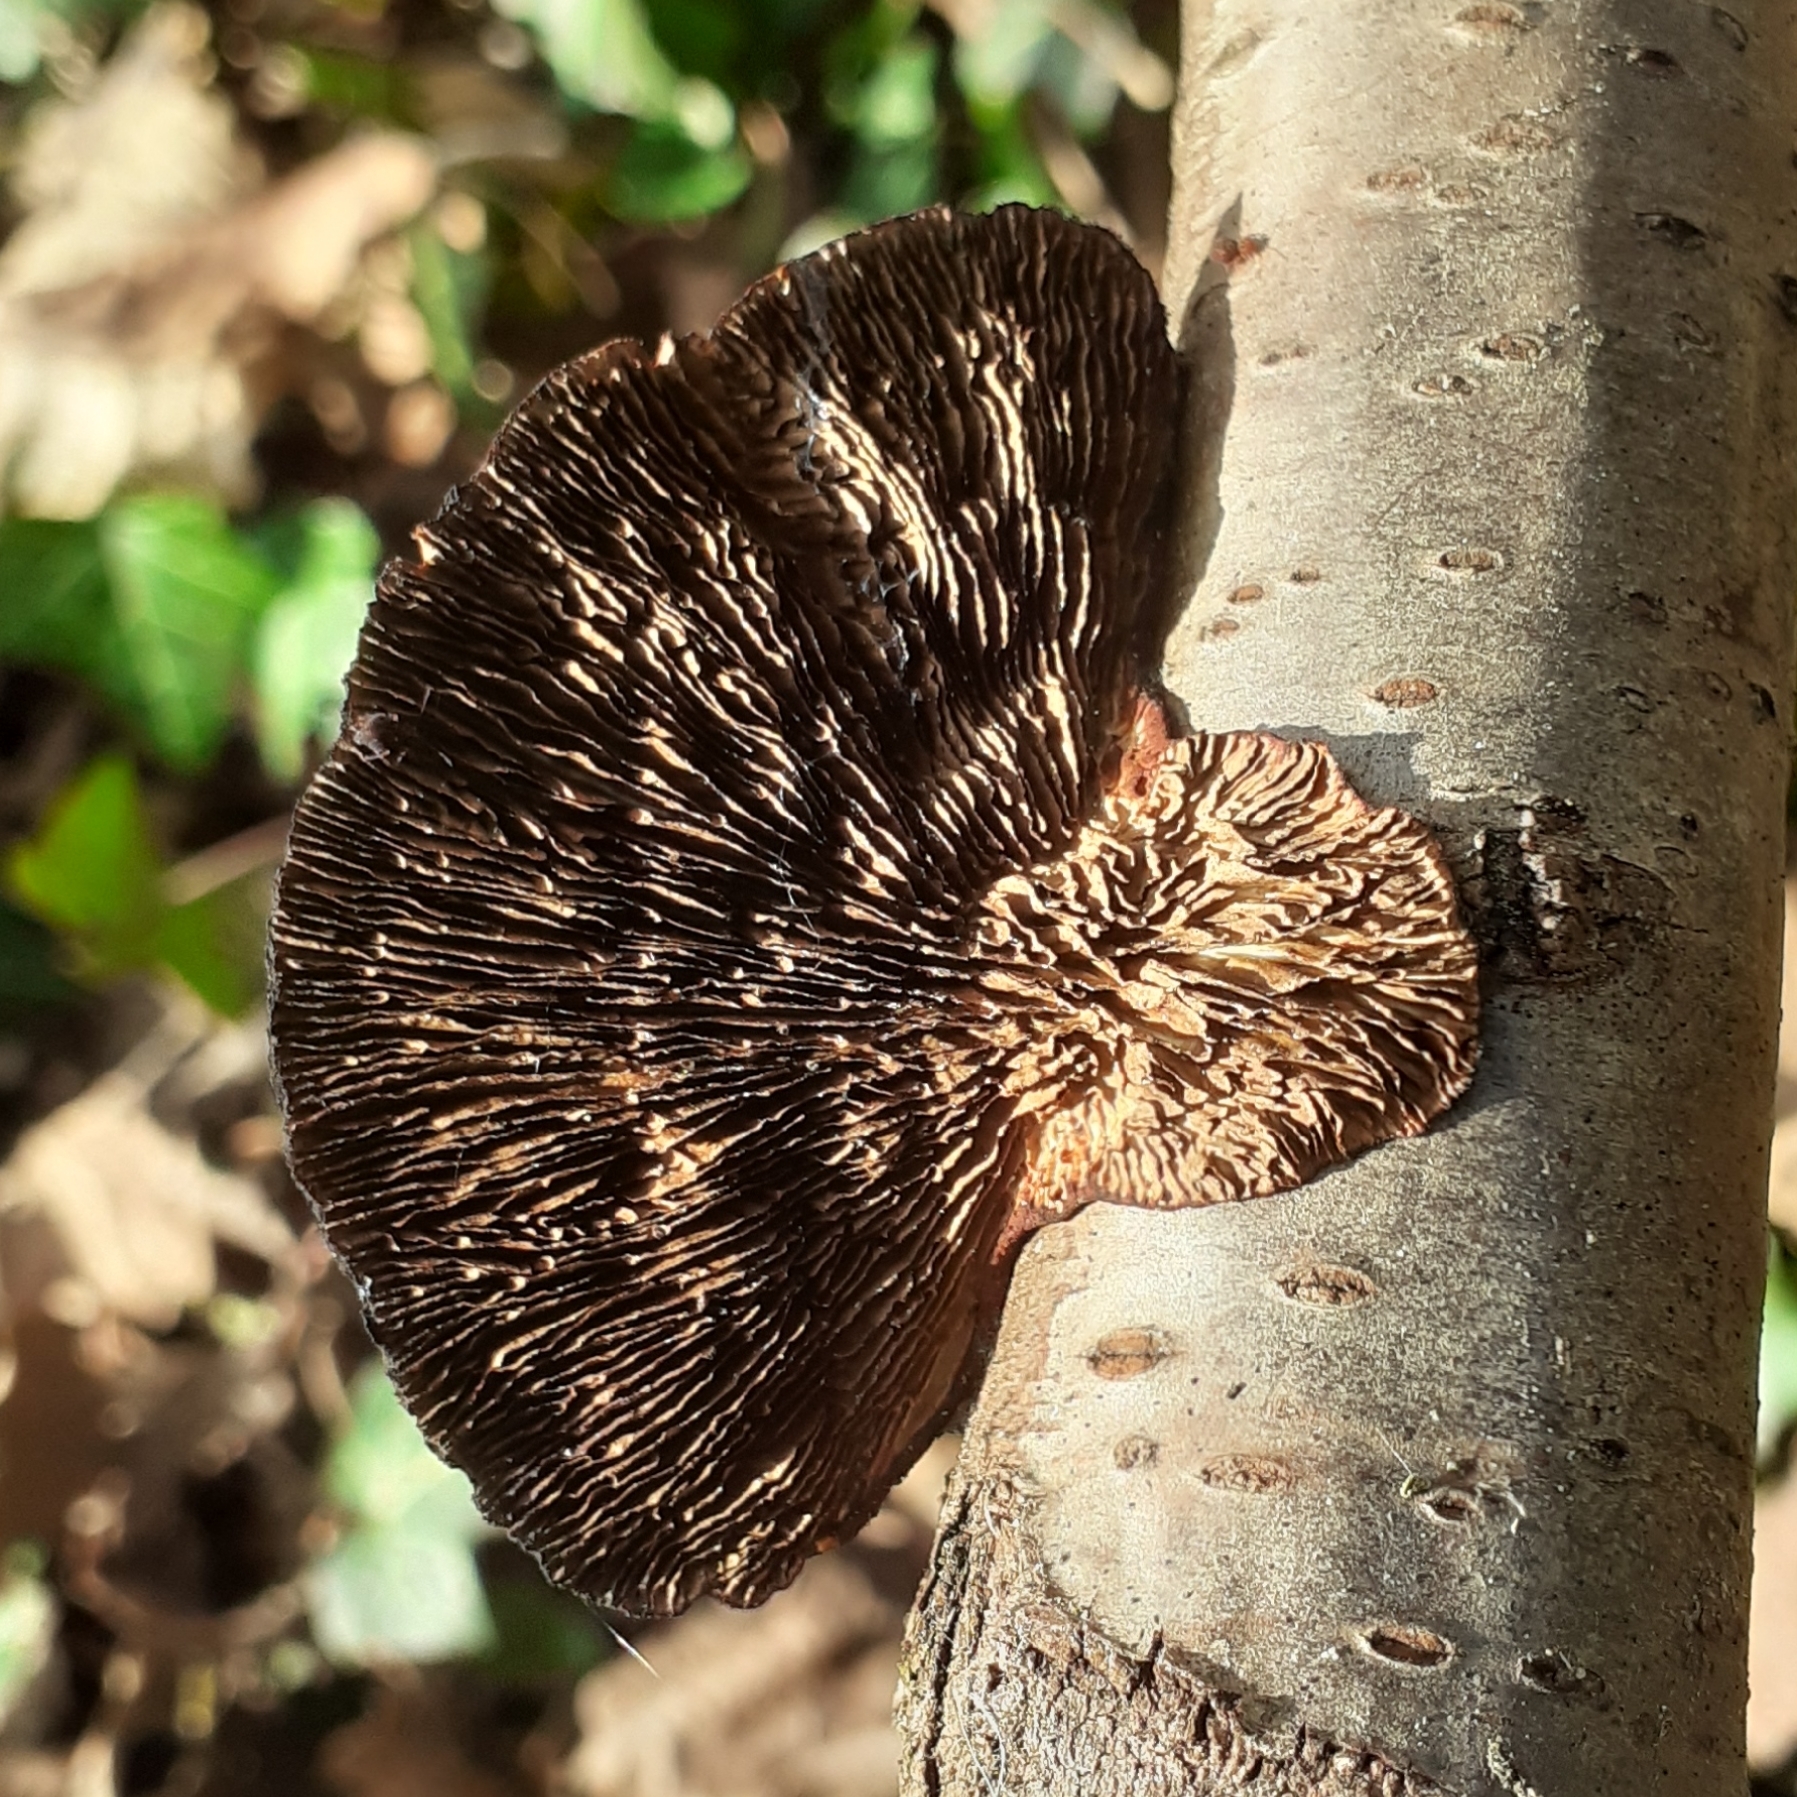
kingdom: Fungi
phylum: Basidiomycota
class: Agaricomycetes
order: Polyporales
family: Polyporaceae
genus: Daedaleopsis
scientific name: Daedaleopsis tricolor
